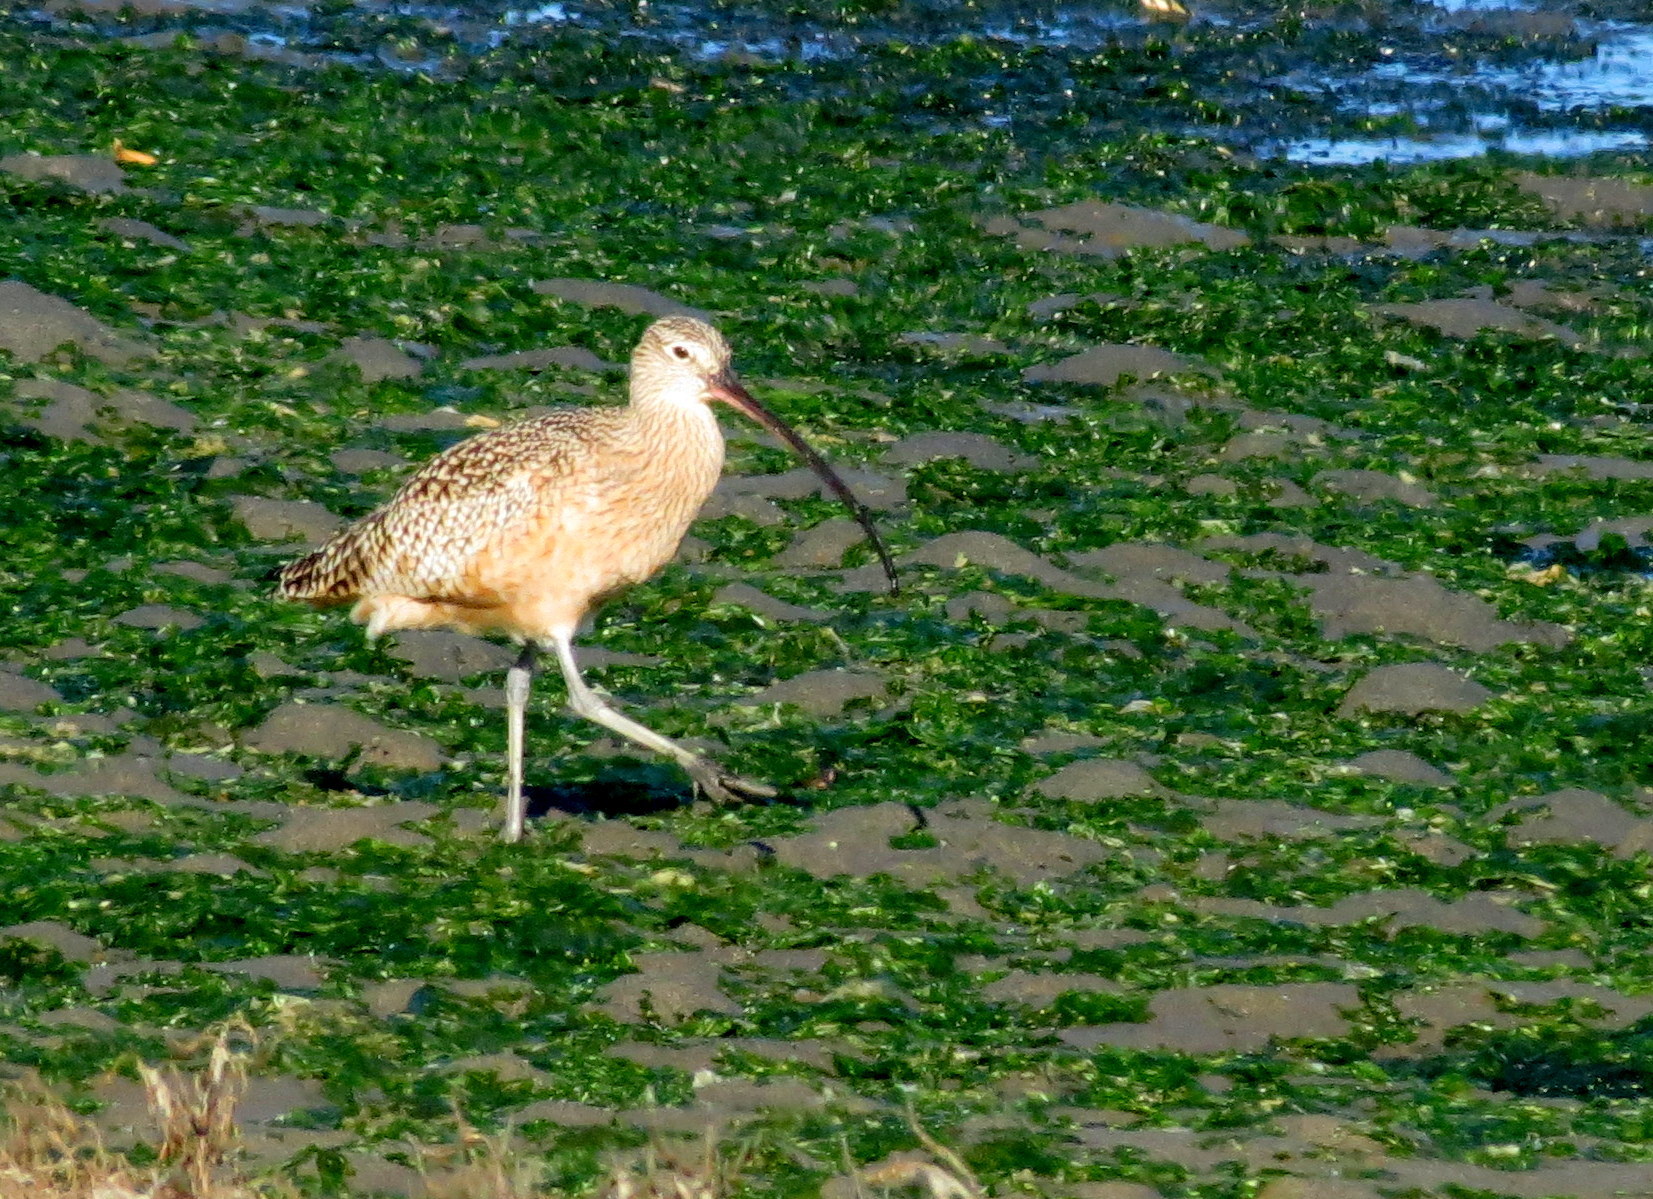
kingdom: Animalia
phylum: Chordata
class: Aves
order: Charadriiformes
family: Scolopacidae
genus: Numenius
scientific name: Numenius americanus
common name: Long-billed curlew
